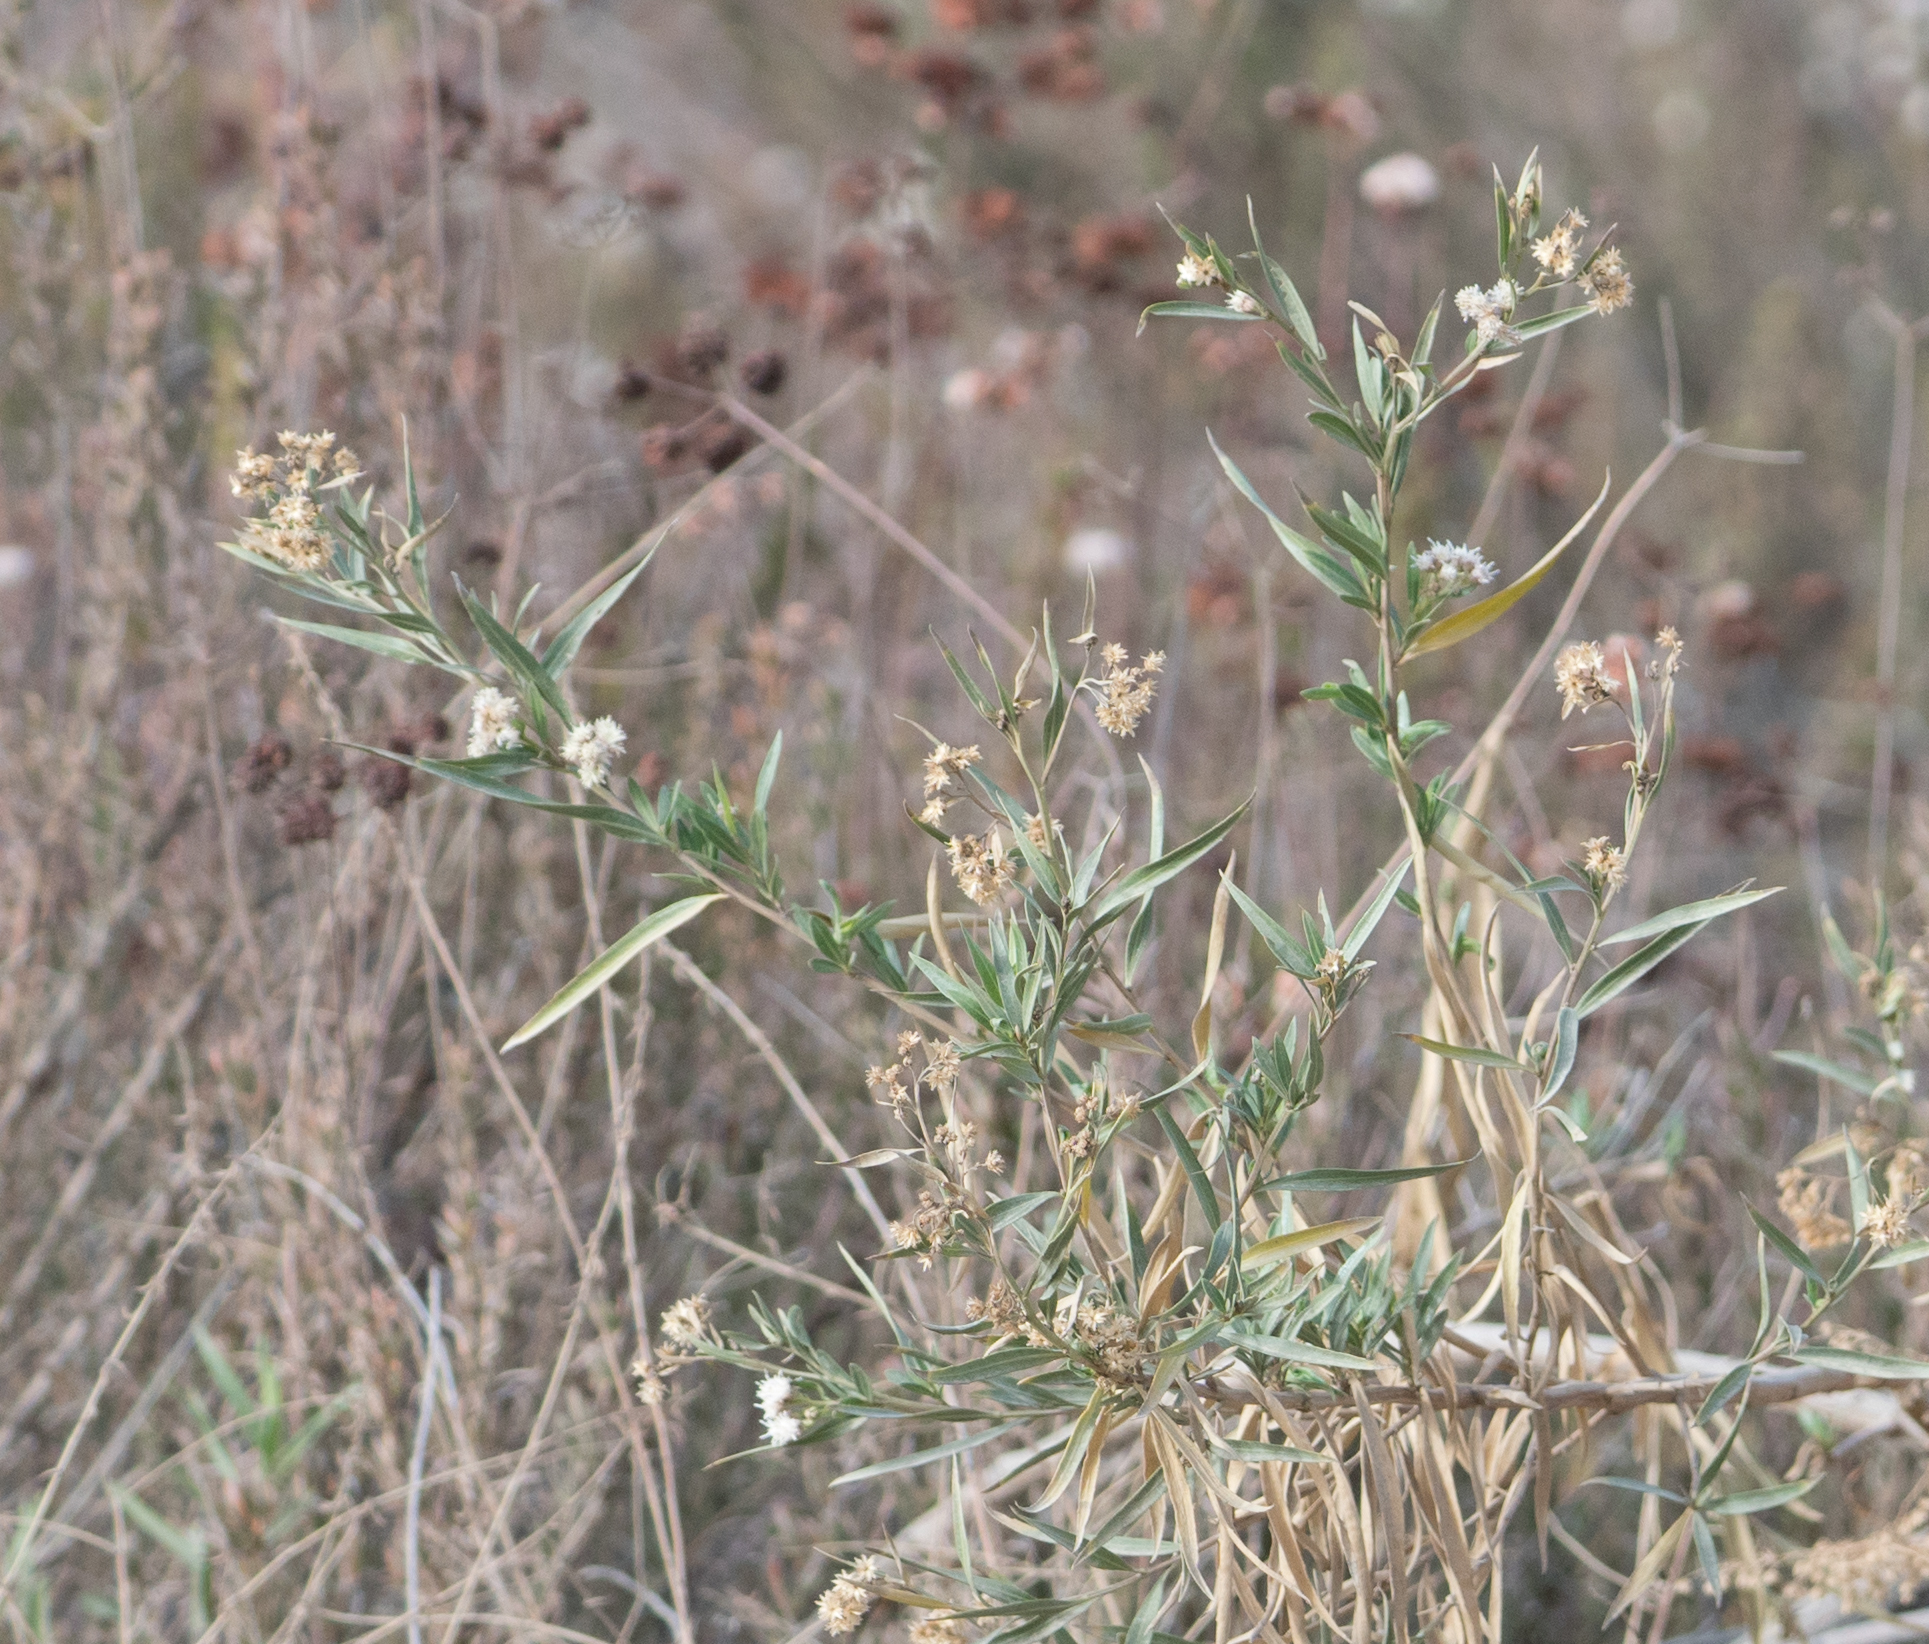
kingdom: Plantae
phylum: Tracheophyta
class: Magnoliopsida
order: Asterales
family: Asteraceae
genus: Baccharis
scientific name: Baccharis salicifolia
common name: Sticky baccharis
